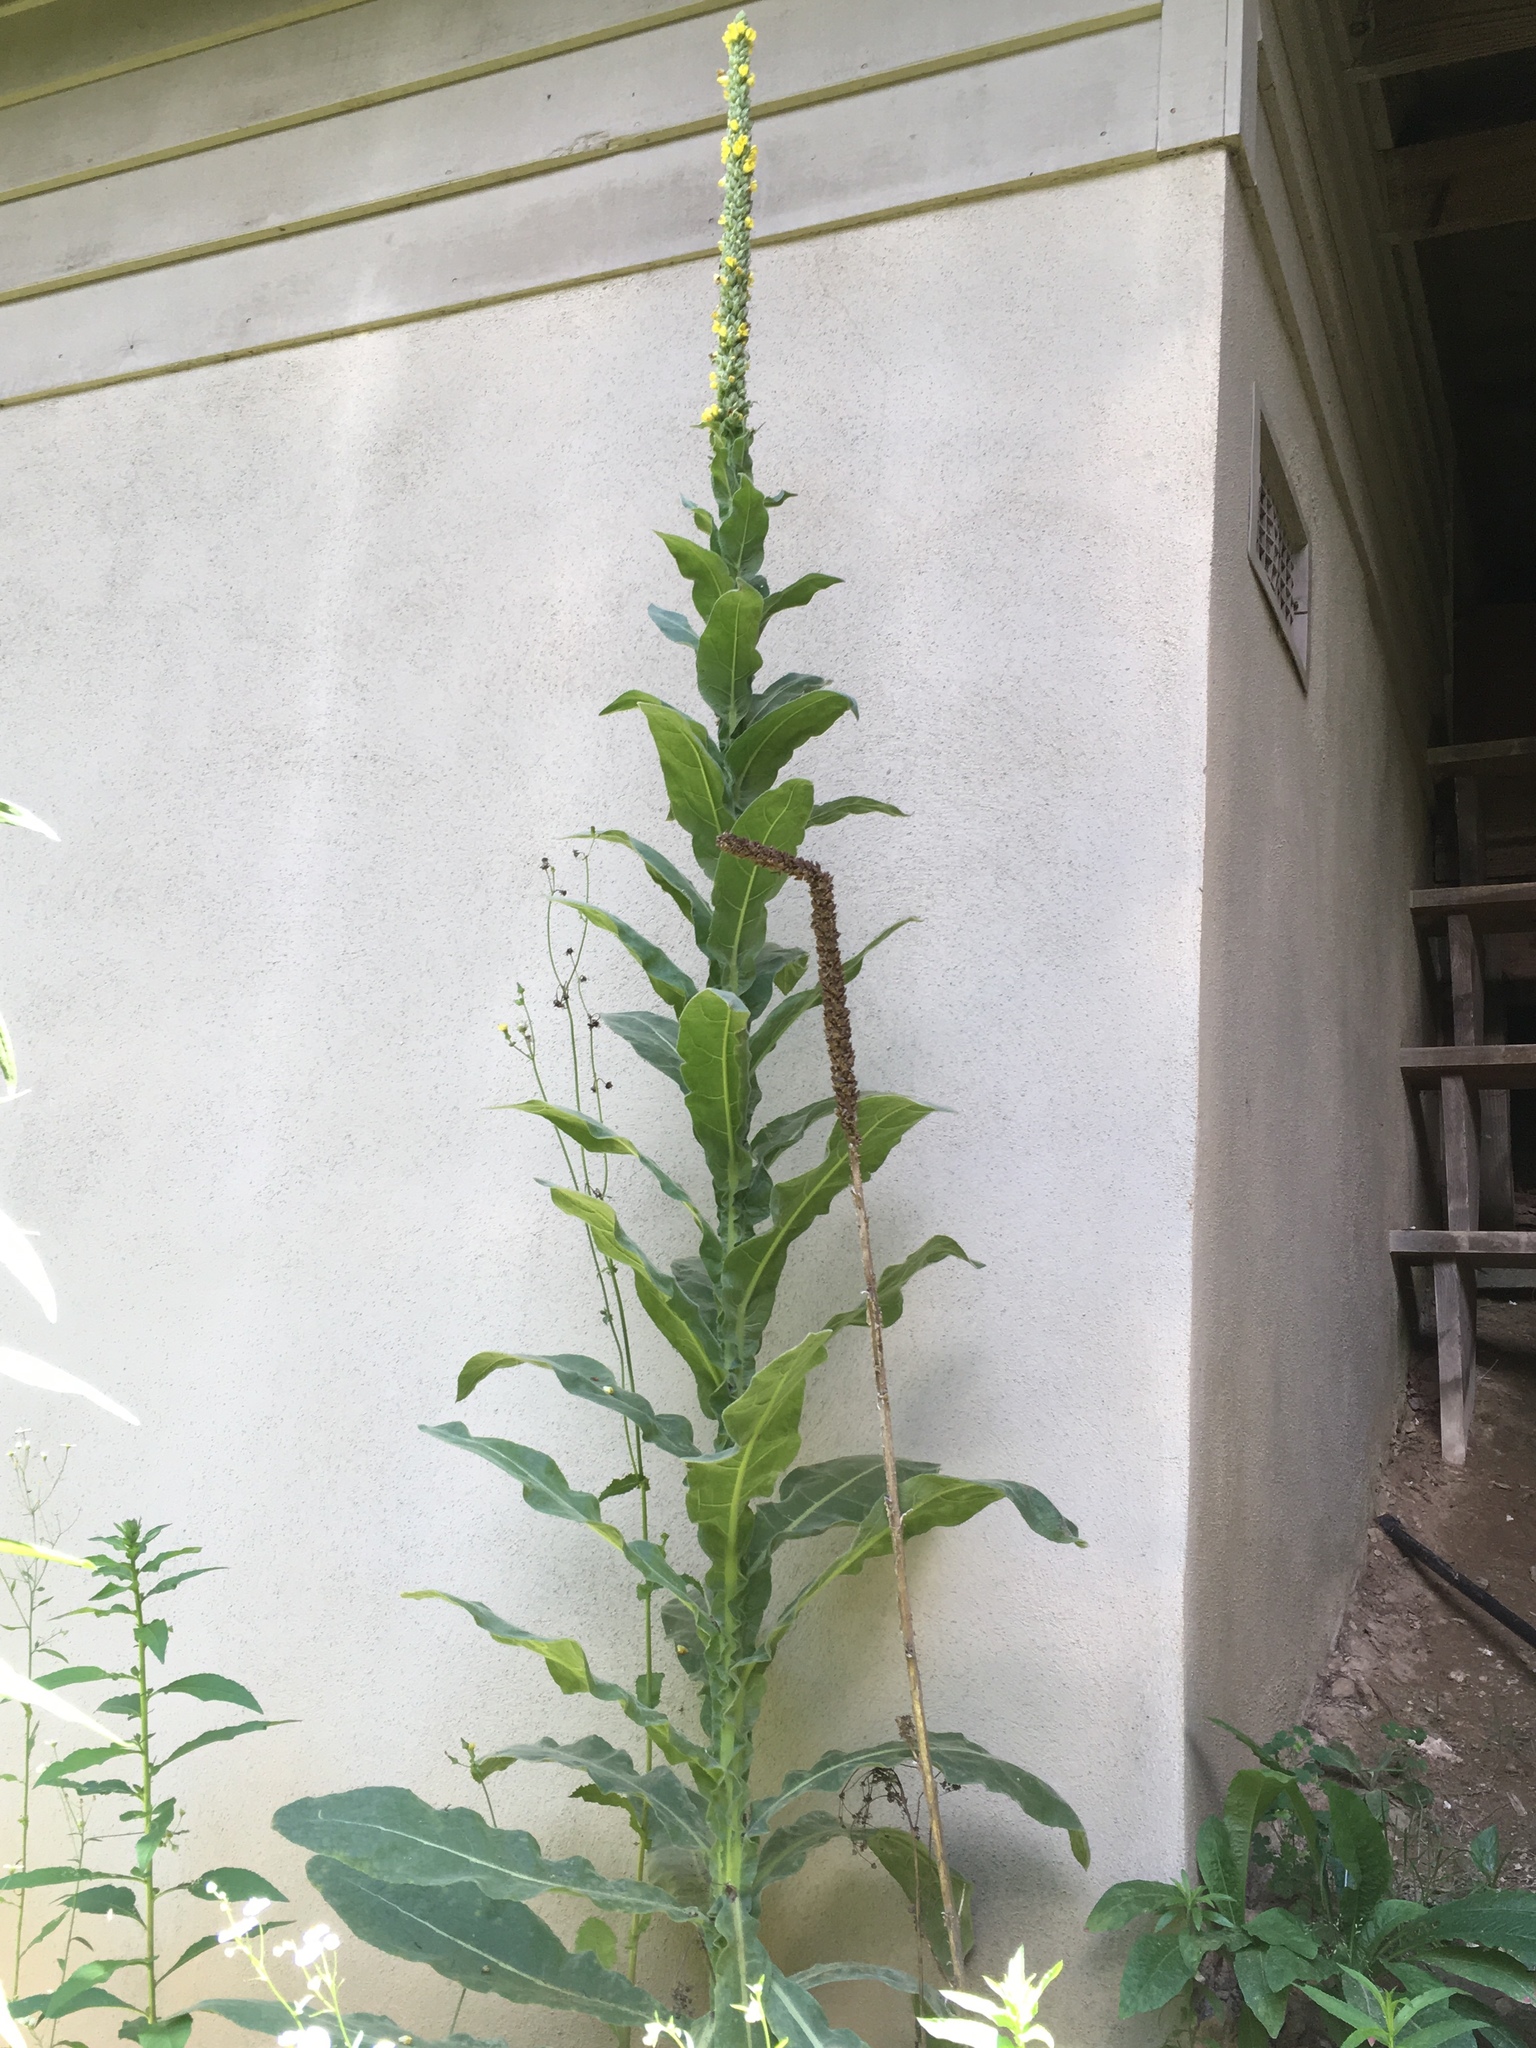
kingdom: Plantae
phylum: Tracheophyta
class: Magnoliopsida
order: Lamiales
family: Scrophulariaceae
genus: Verbascum
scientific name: Verbascum thapsus
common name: Common mullein
